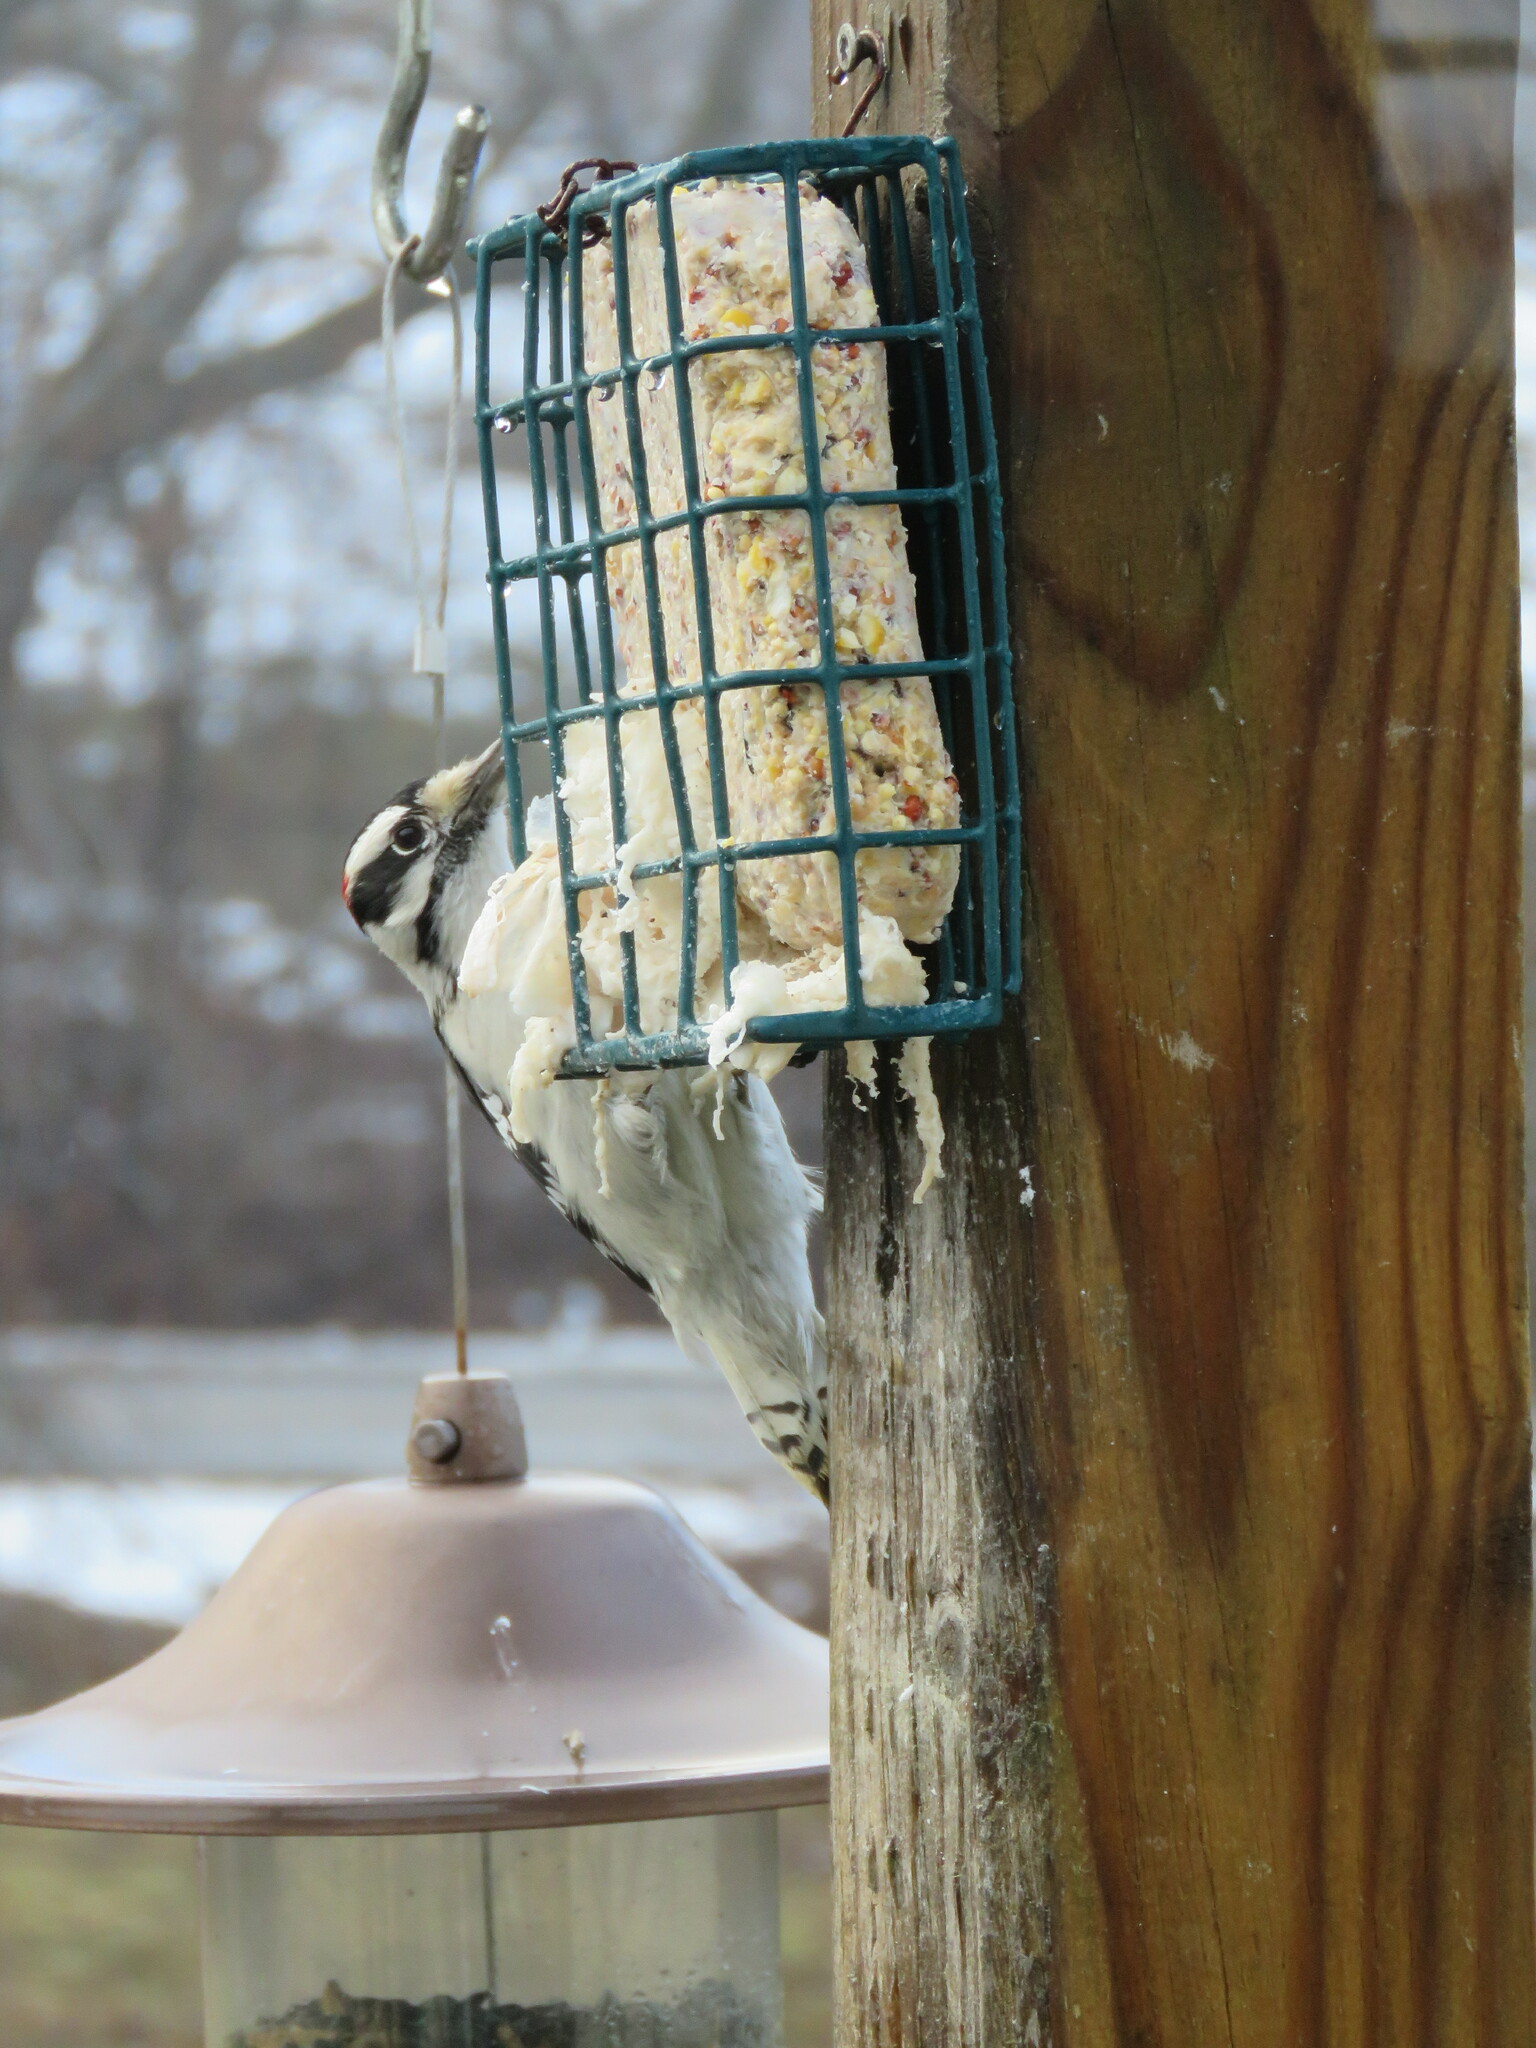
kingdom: Animalia
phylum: Chordata
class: Aves
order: Piciformes
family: Picidae
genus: Dryobates
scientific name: Dryobates pubescens
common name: Downy woodpecker
